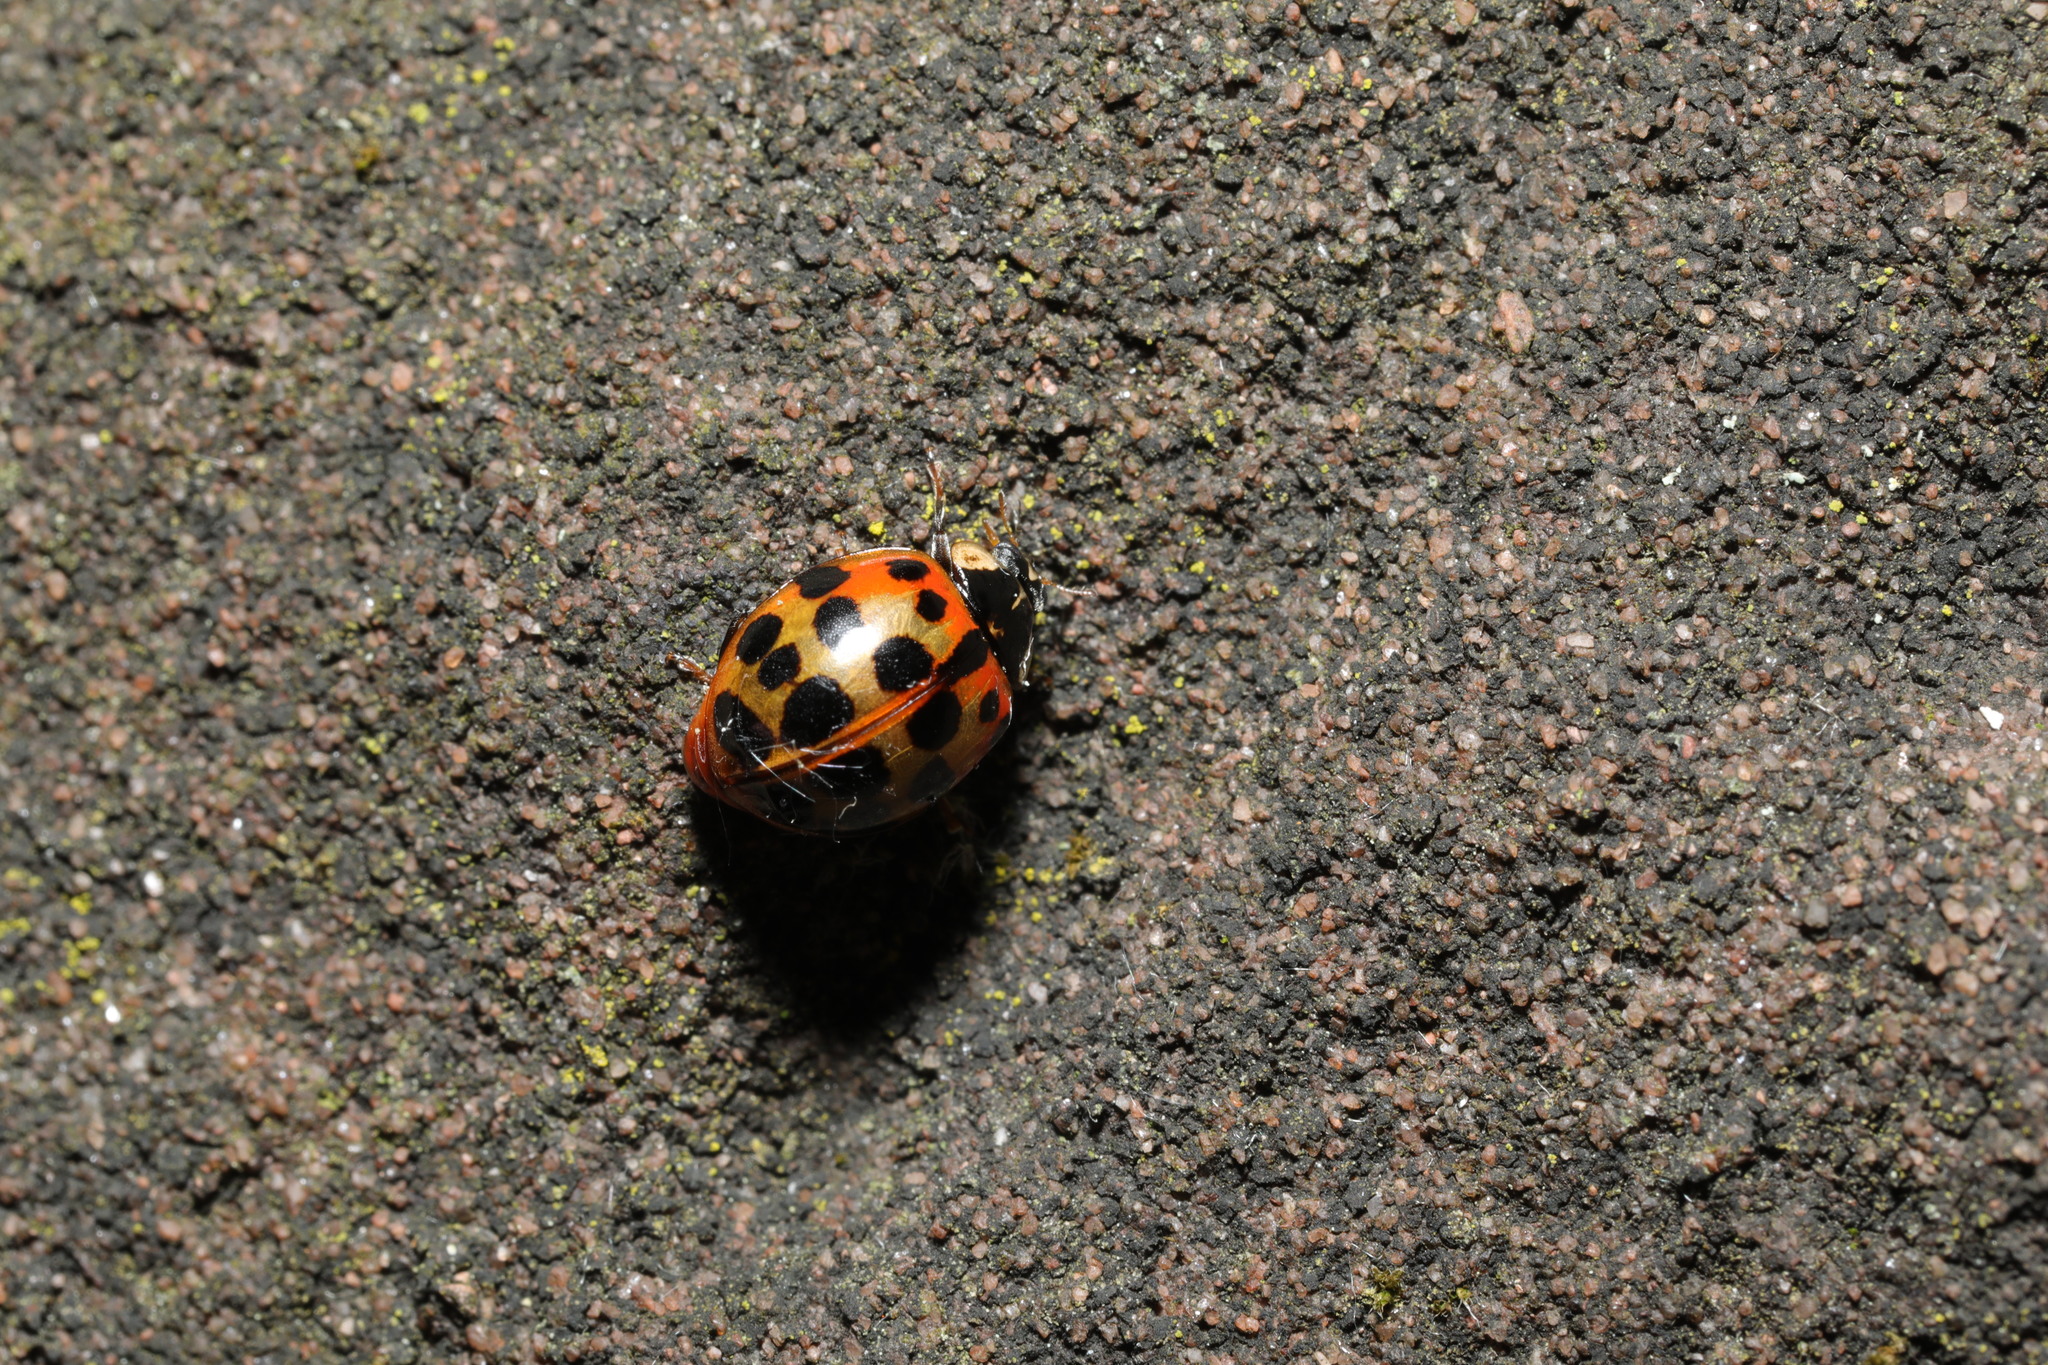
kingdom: Animalia
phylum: Arthropoda
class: Insecta
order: Coleoptera
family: Coccinellidae
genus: Harmonia
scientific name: Harmonia axyridis
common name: Harlequin ladybird
